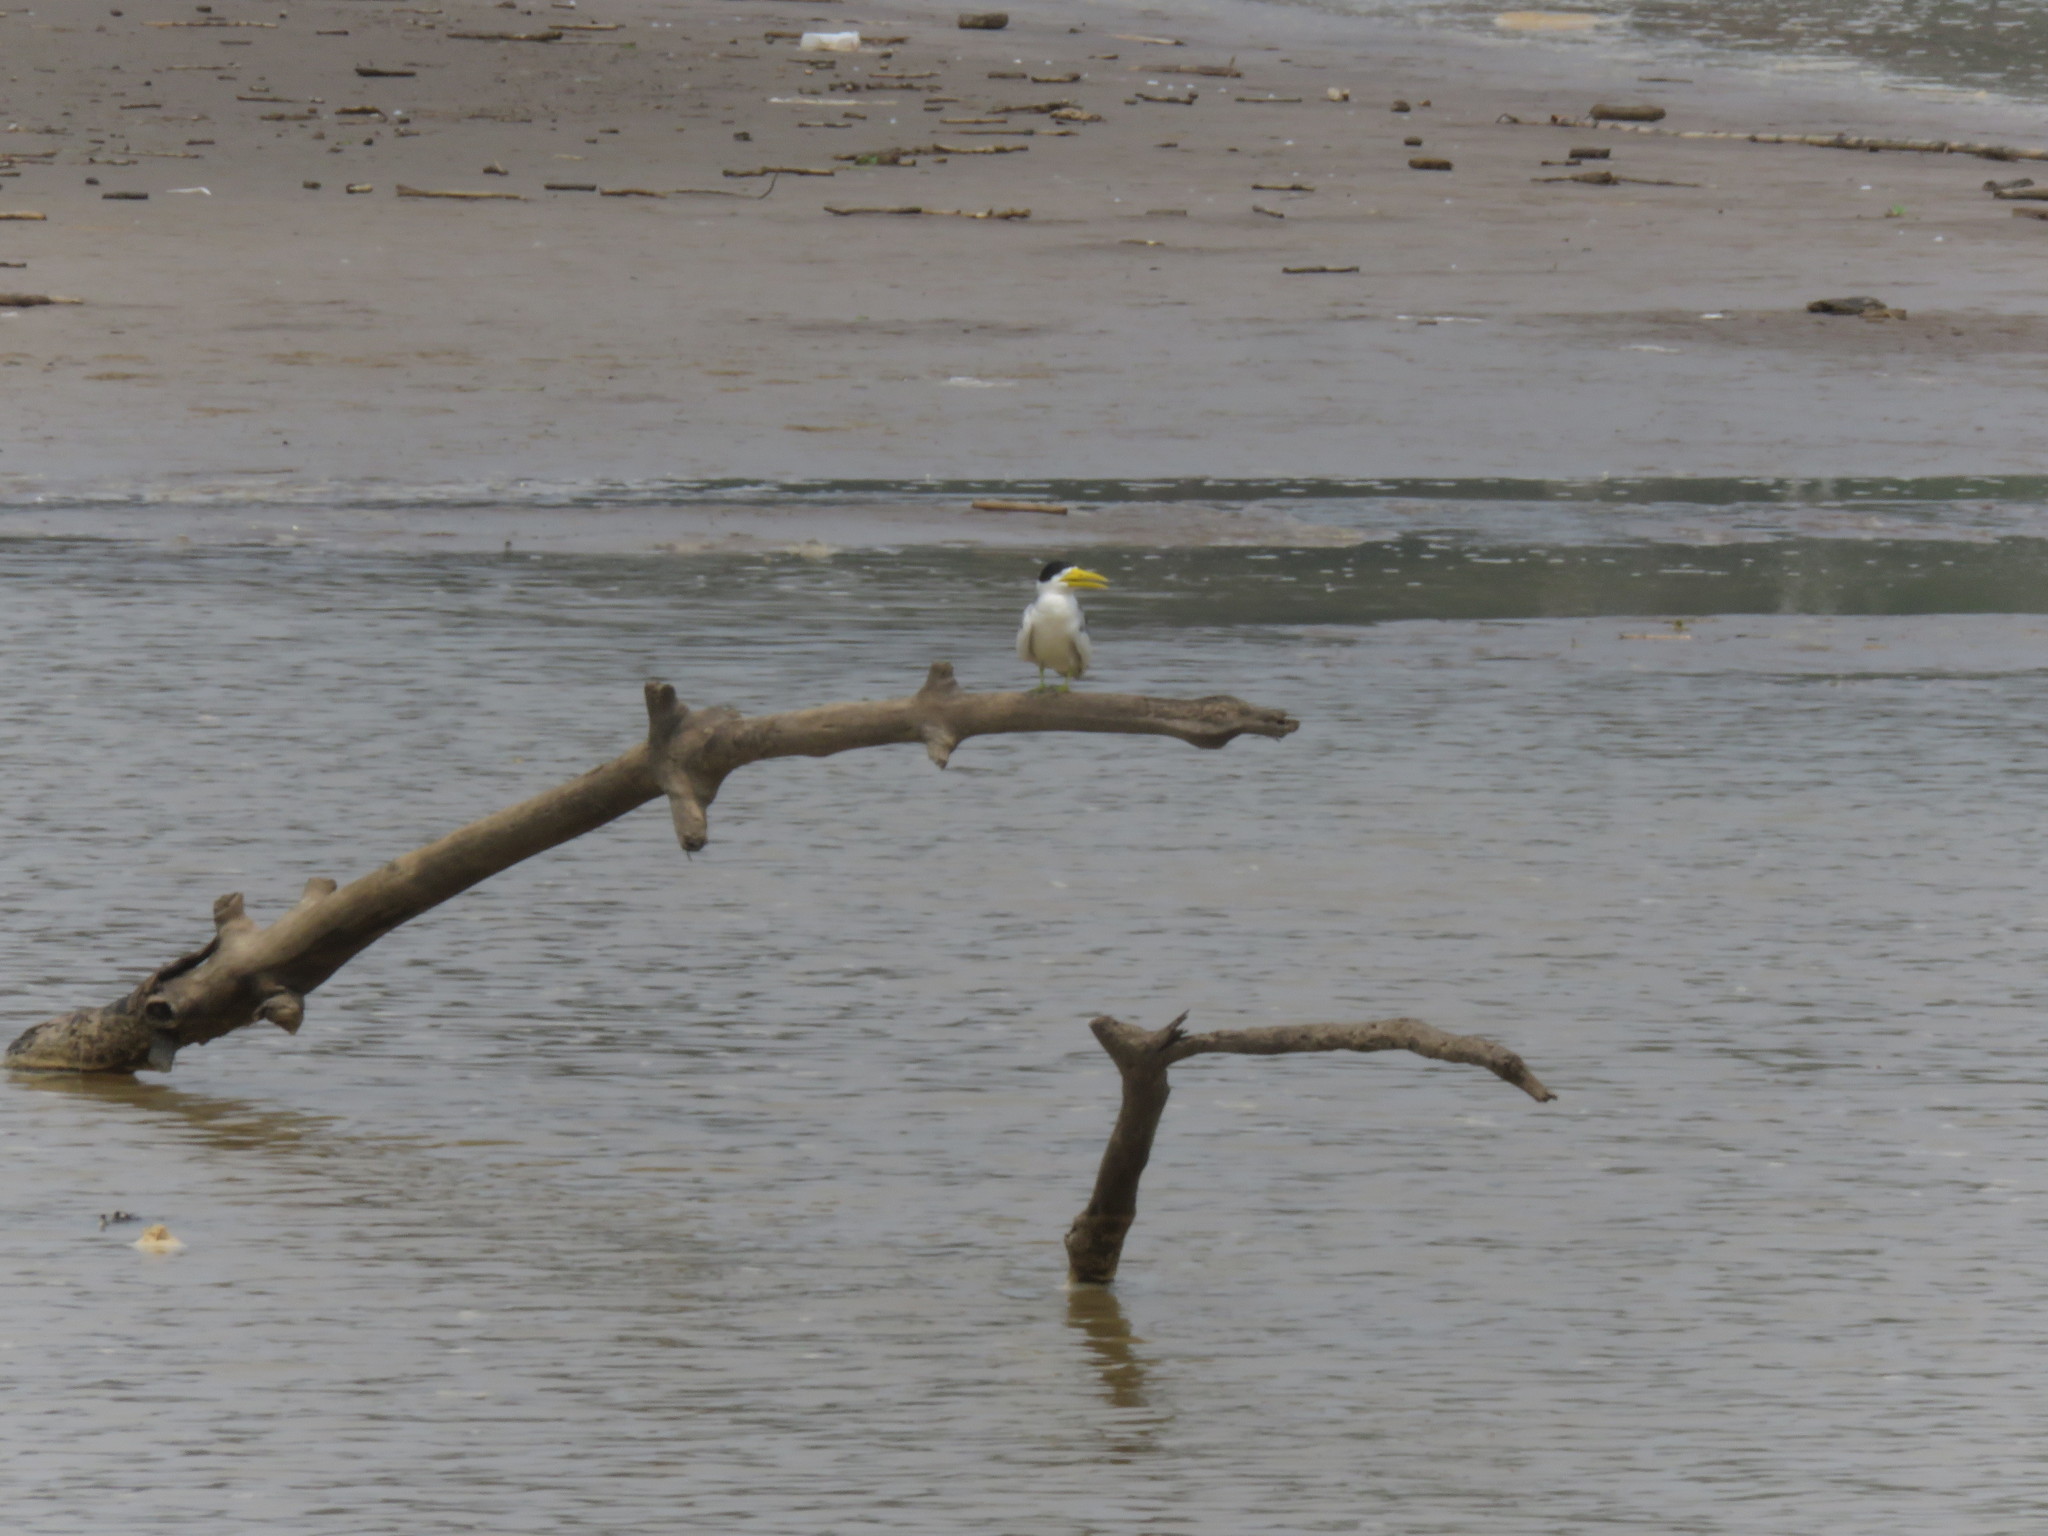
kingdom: Animalia
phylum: Chordata
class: Aves
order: Charadriiformes
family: Laridae
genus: Phaetusa
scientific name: Phaetusa simplex
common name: Large-billed tern
